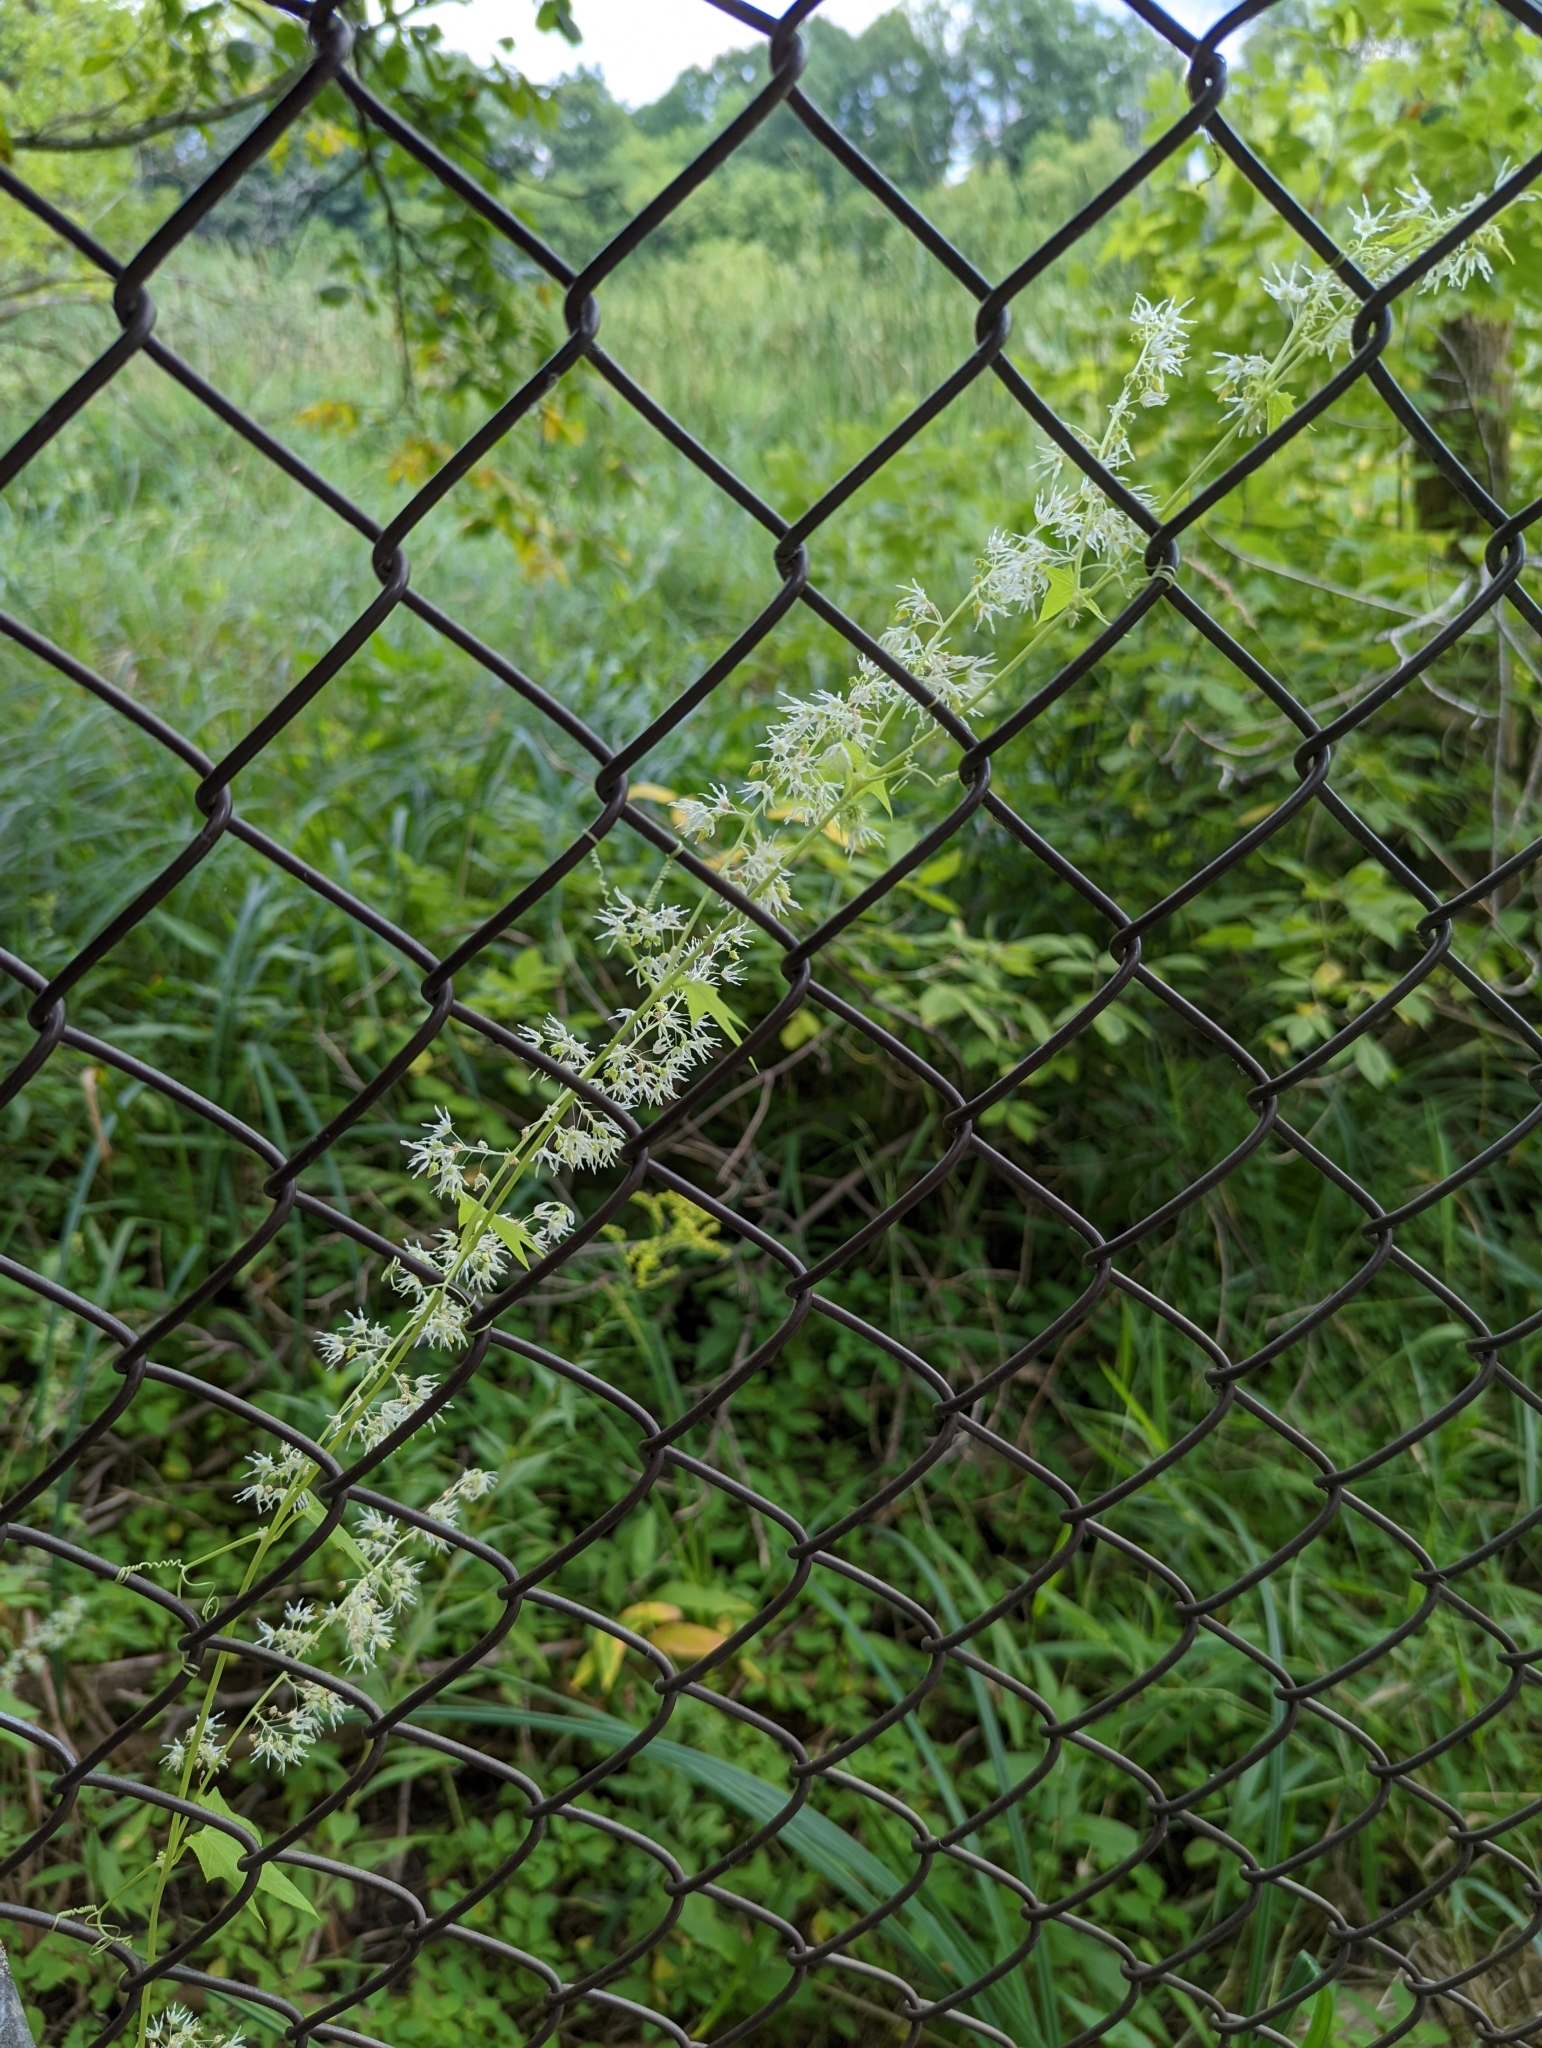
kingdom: Plantae
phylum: Tracheophyta
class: Magnoliopsida
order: Cucurbitales
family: Cucurbitaceae
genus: Echinocystis
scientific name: Echinocystis lobata
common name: Wild cucumber
